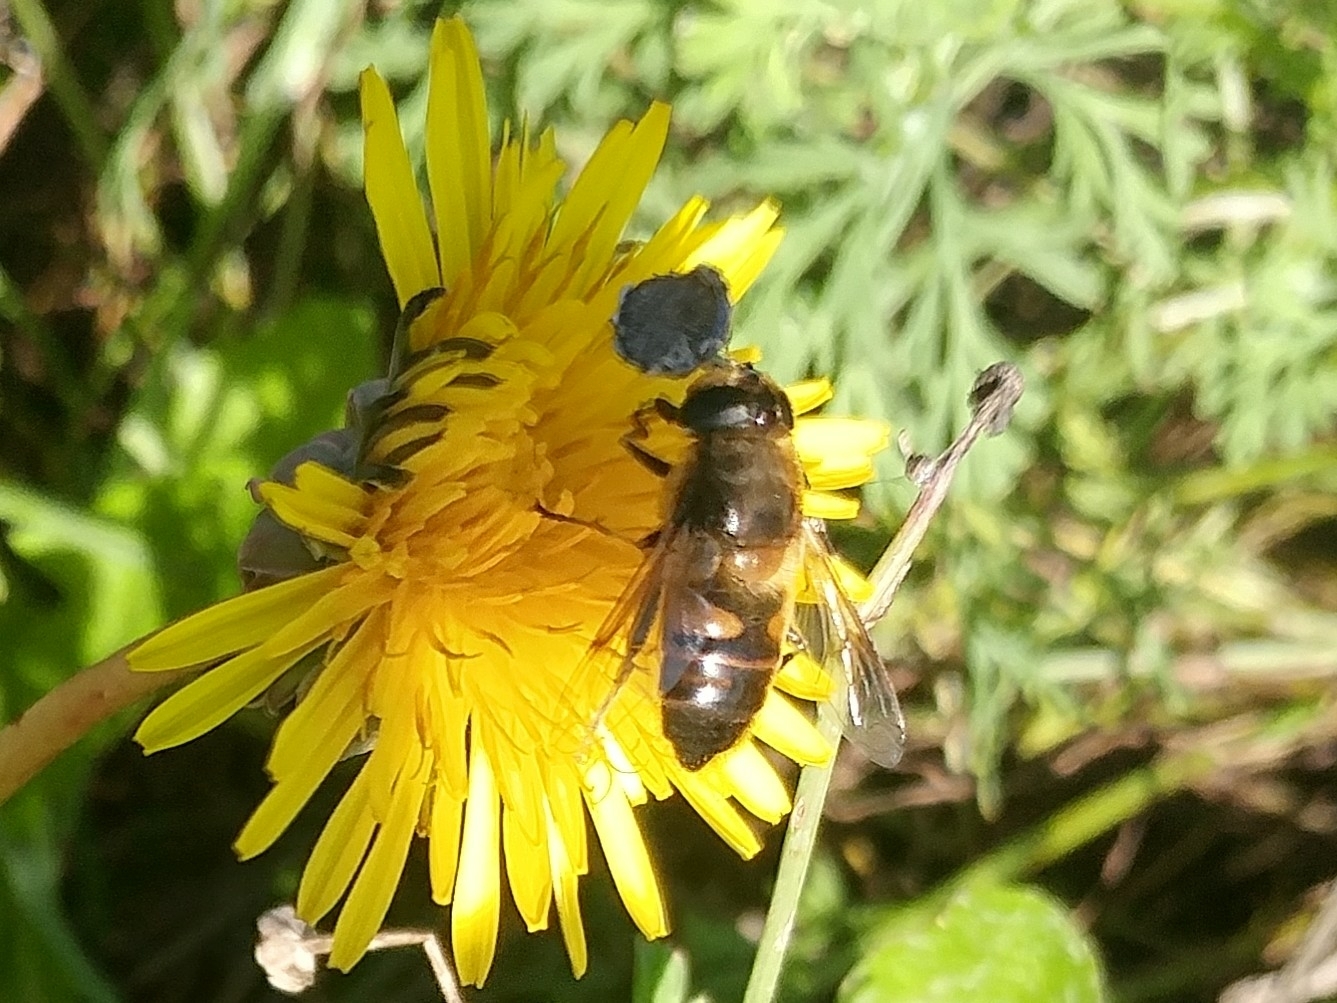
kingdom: Animalia
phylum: Arthropoda
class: Insecta
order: Diptera
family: Syrphidae
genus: Eristalis
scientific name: Eristalis tenax
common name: Drone fly
